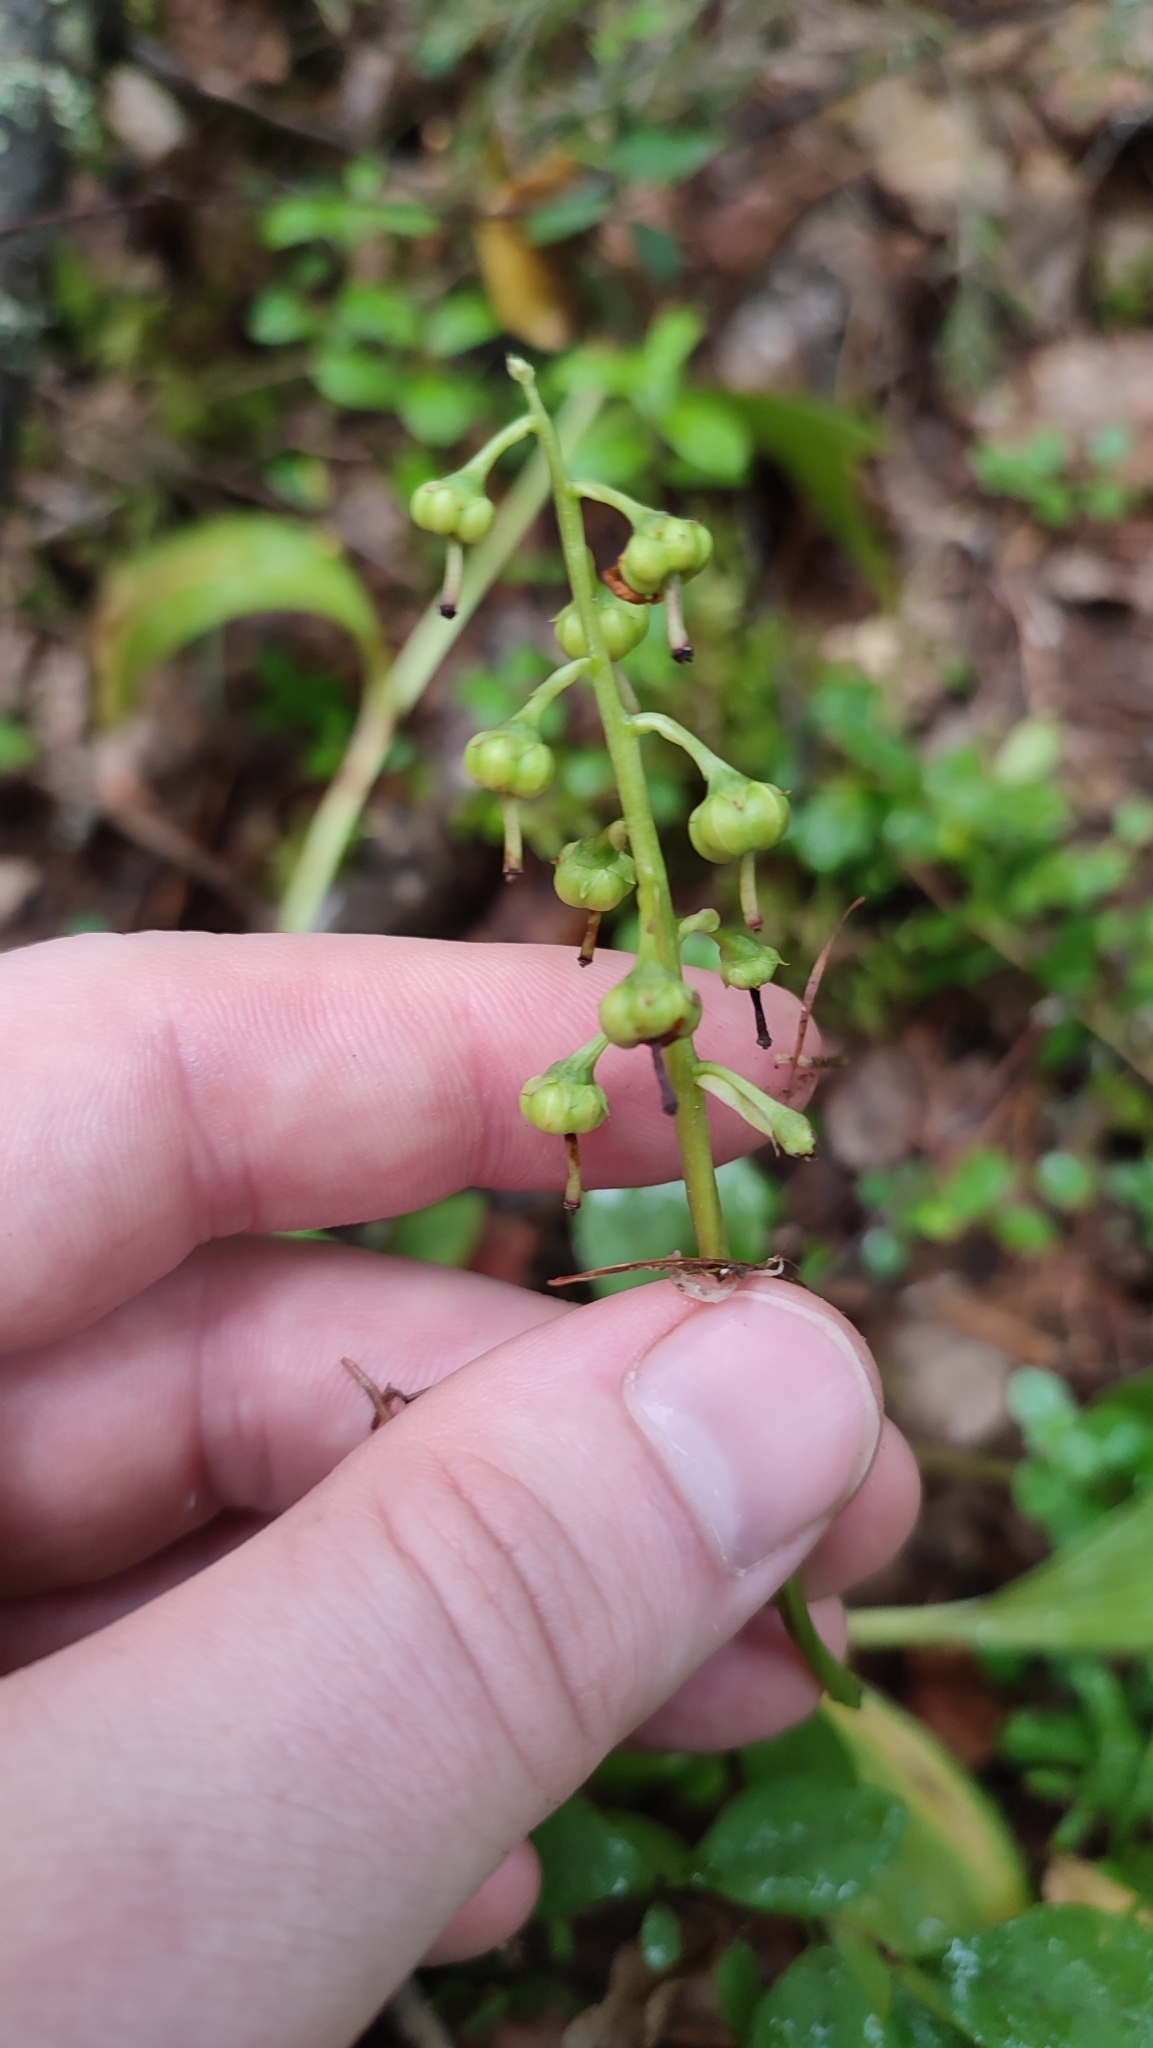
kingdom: Plantae
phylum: Tracheophyta
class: Magnoliopsida
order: Ericales
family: Ericaceae
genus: Pyrola
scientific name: Pyrola media
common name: Intermediate wintergreen
